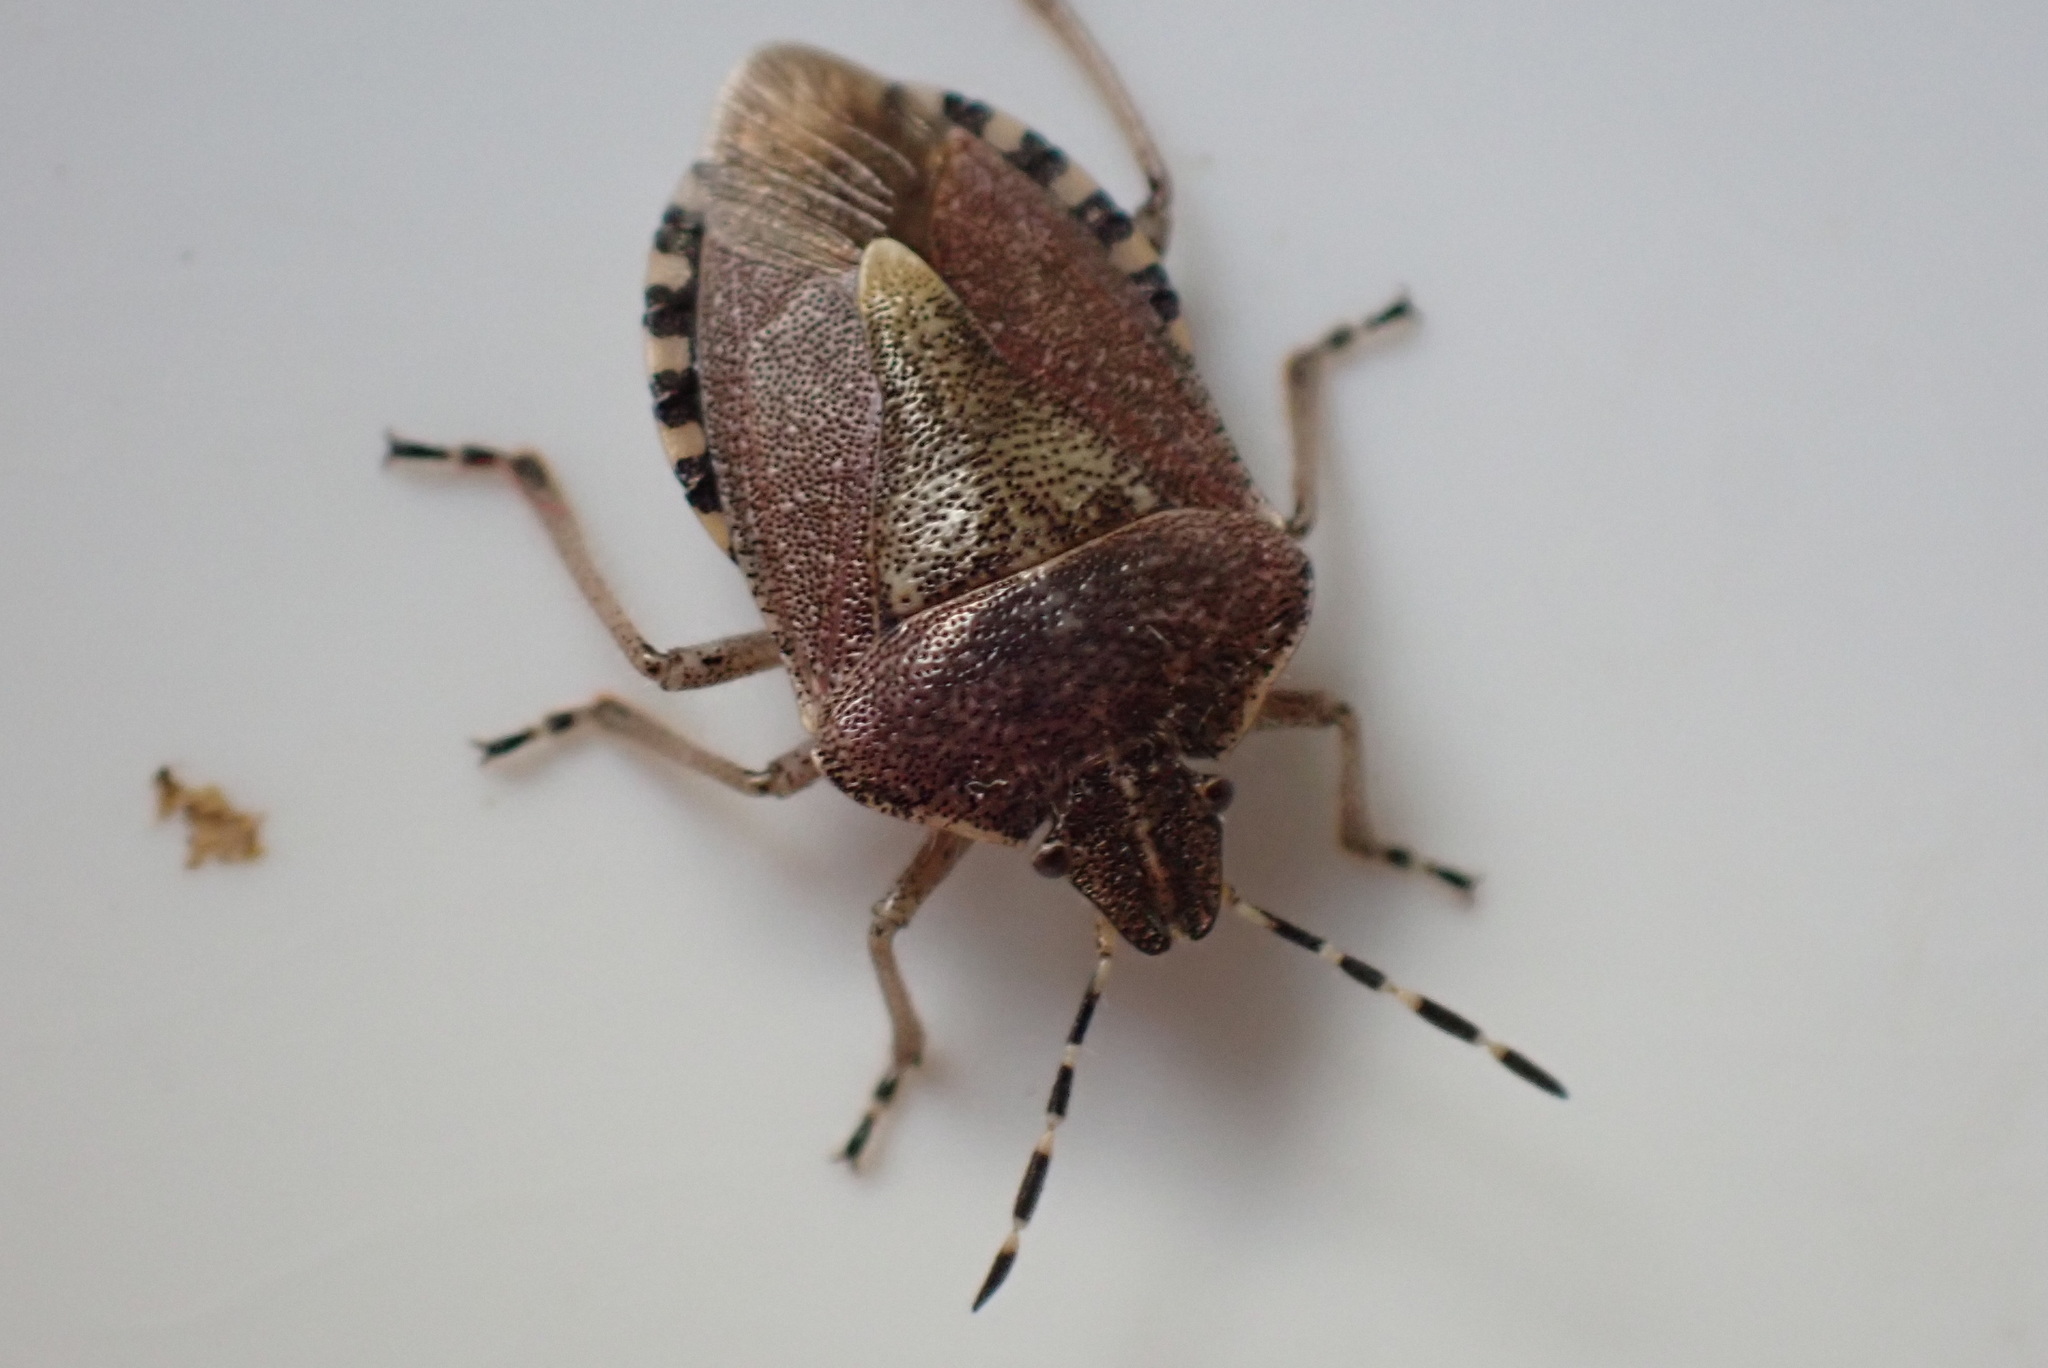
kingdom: Animalia
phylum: Arthropoda
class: Insecta
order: Hemiptera
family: Pentatomidae
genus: Dolycoris
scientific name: Dolycoris baccarum
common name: Sloe bug
